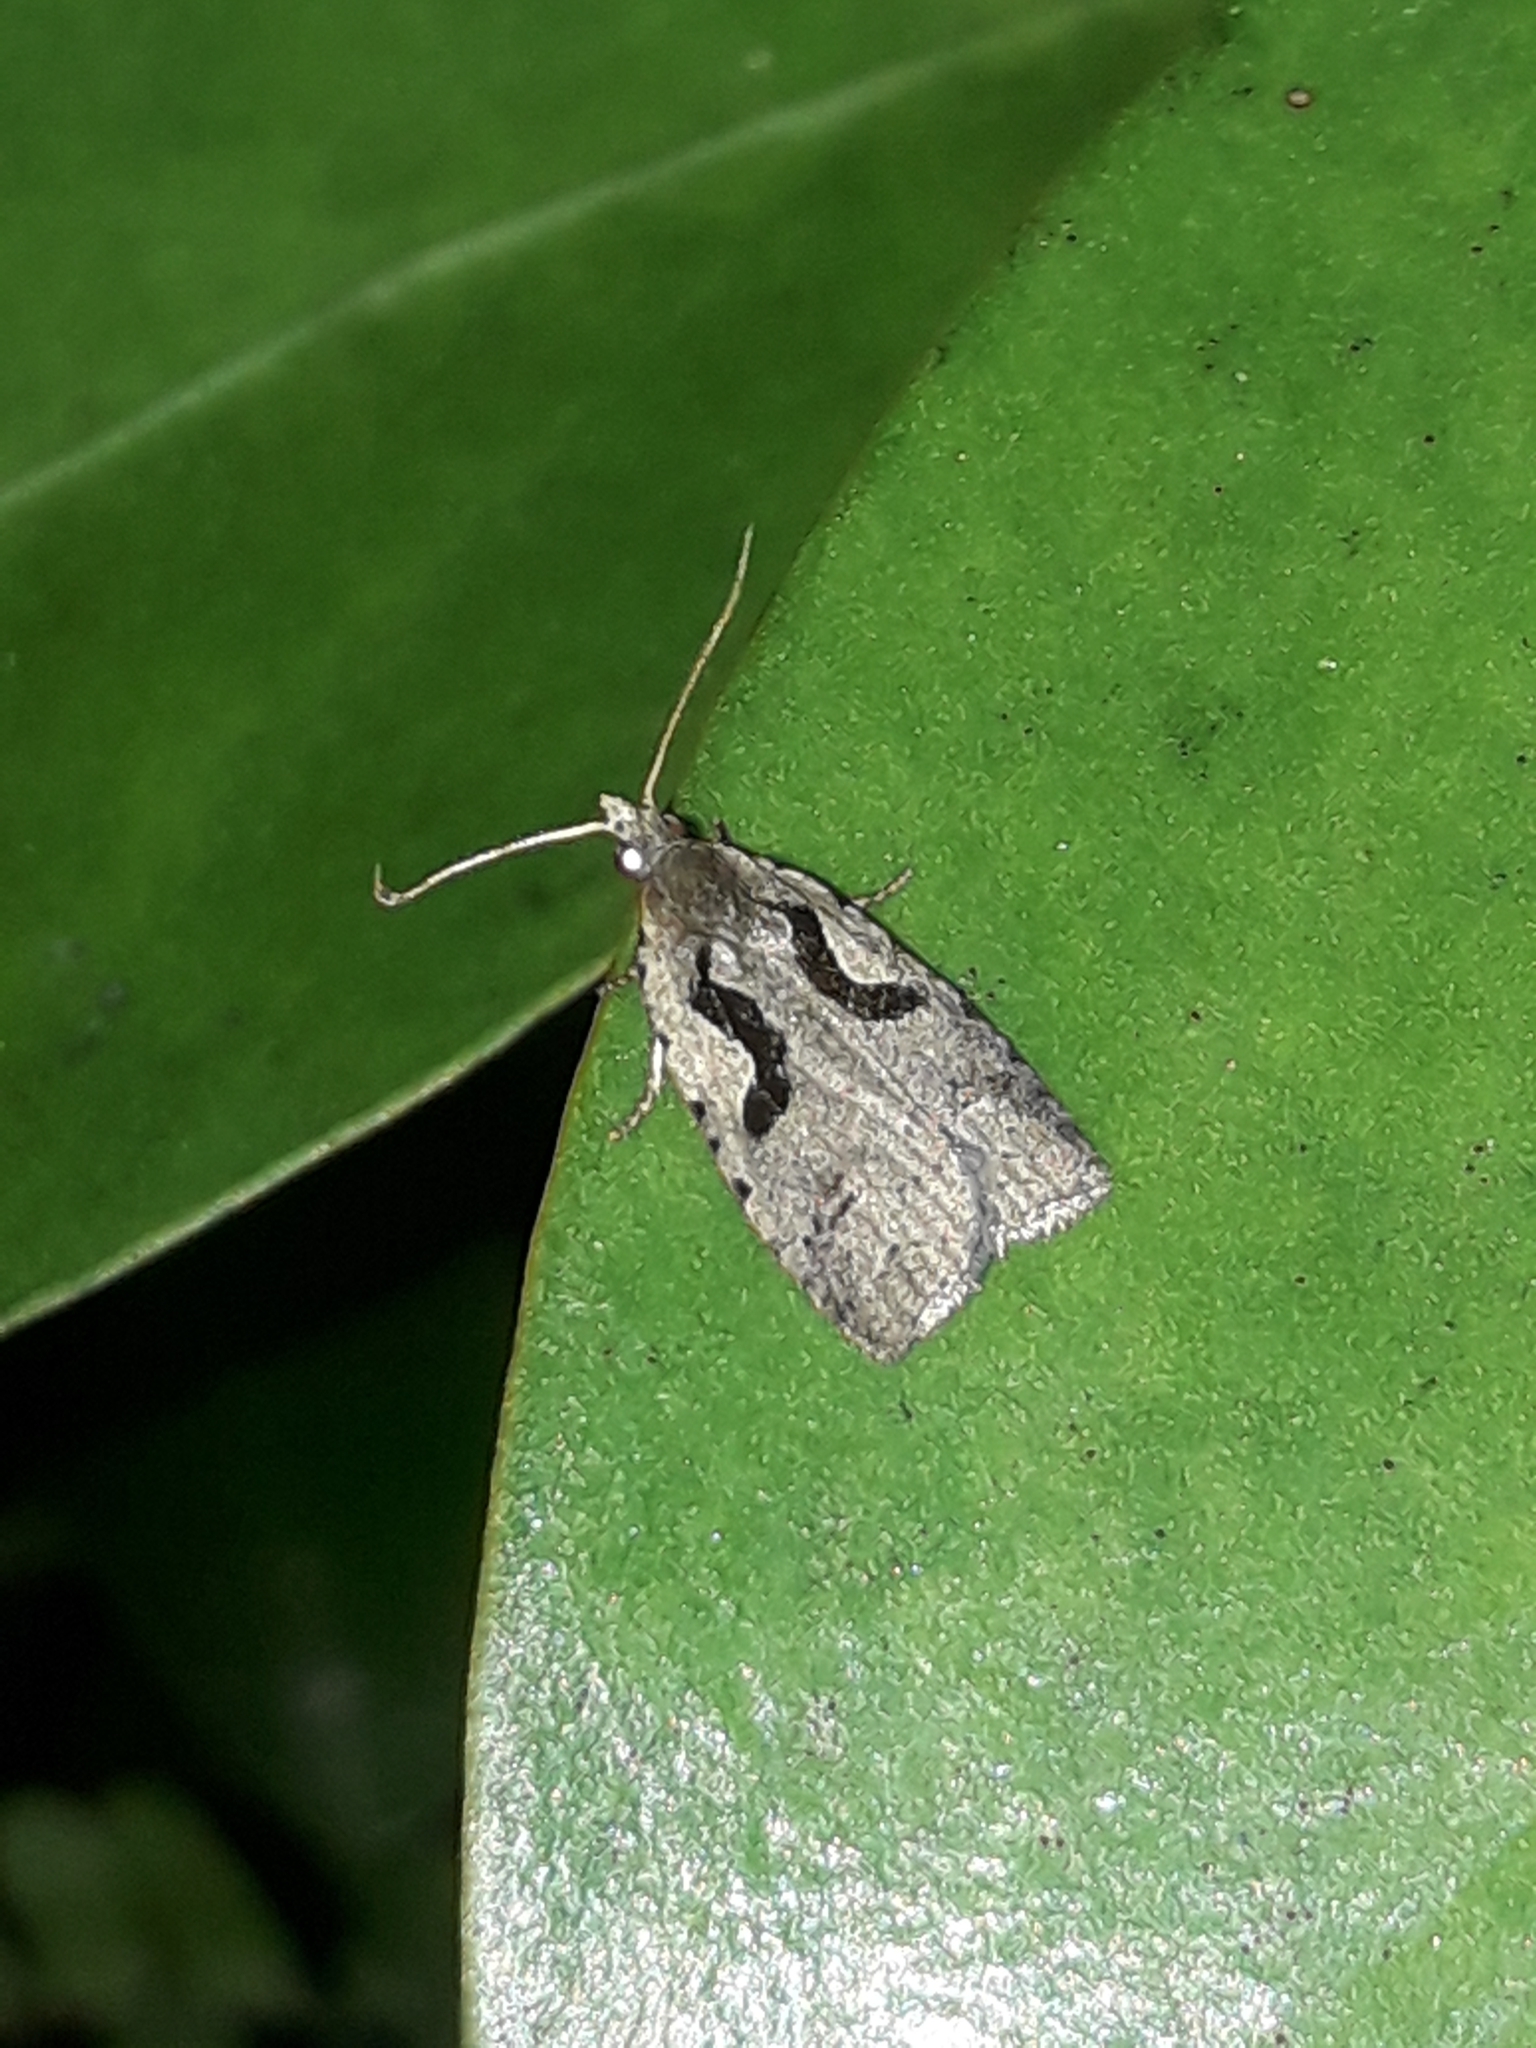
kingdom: Animalia
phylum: Arthropoda
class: Insecta
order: Lepidoptera
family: Tortricidae
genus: Cnephasia
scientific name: Cnephasia jactatana
